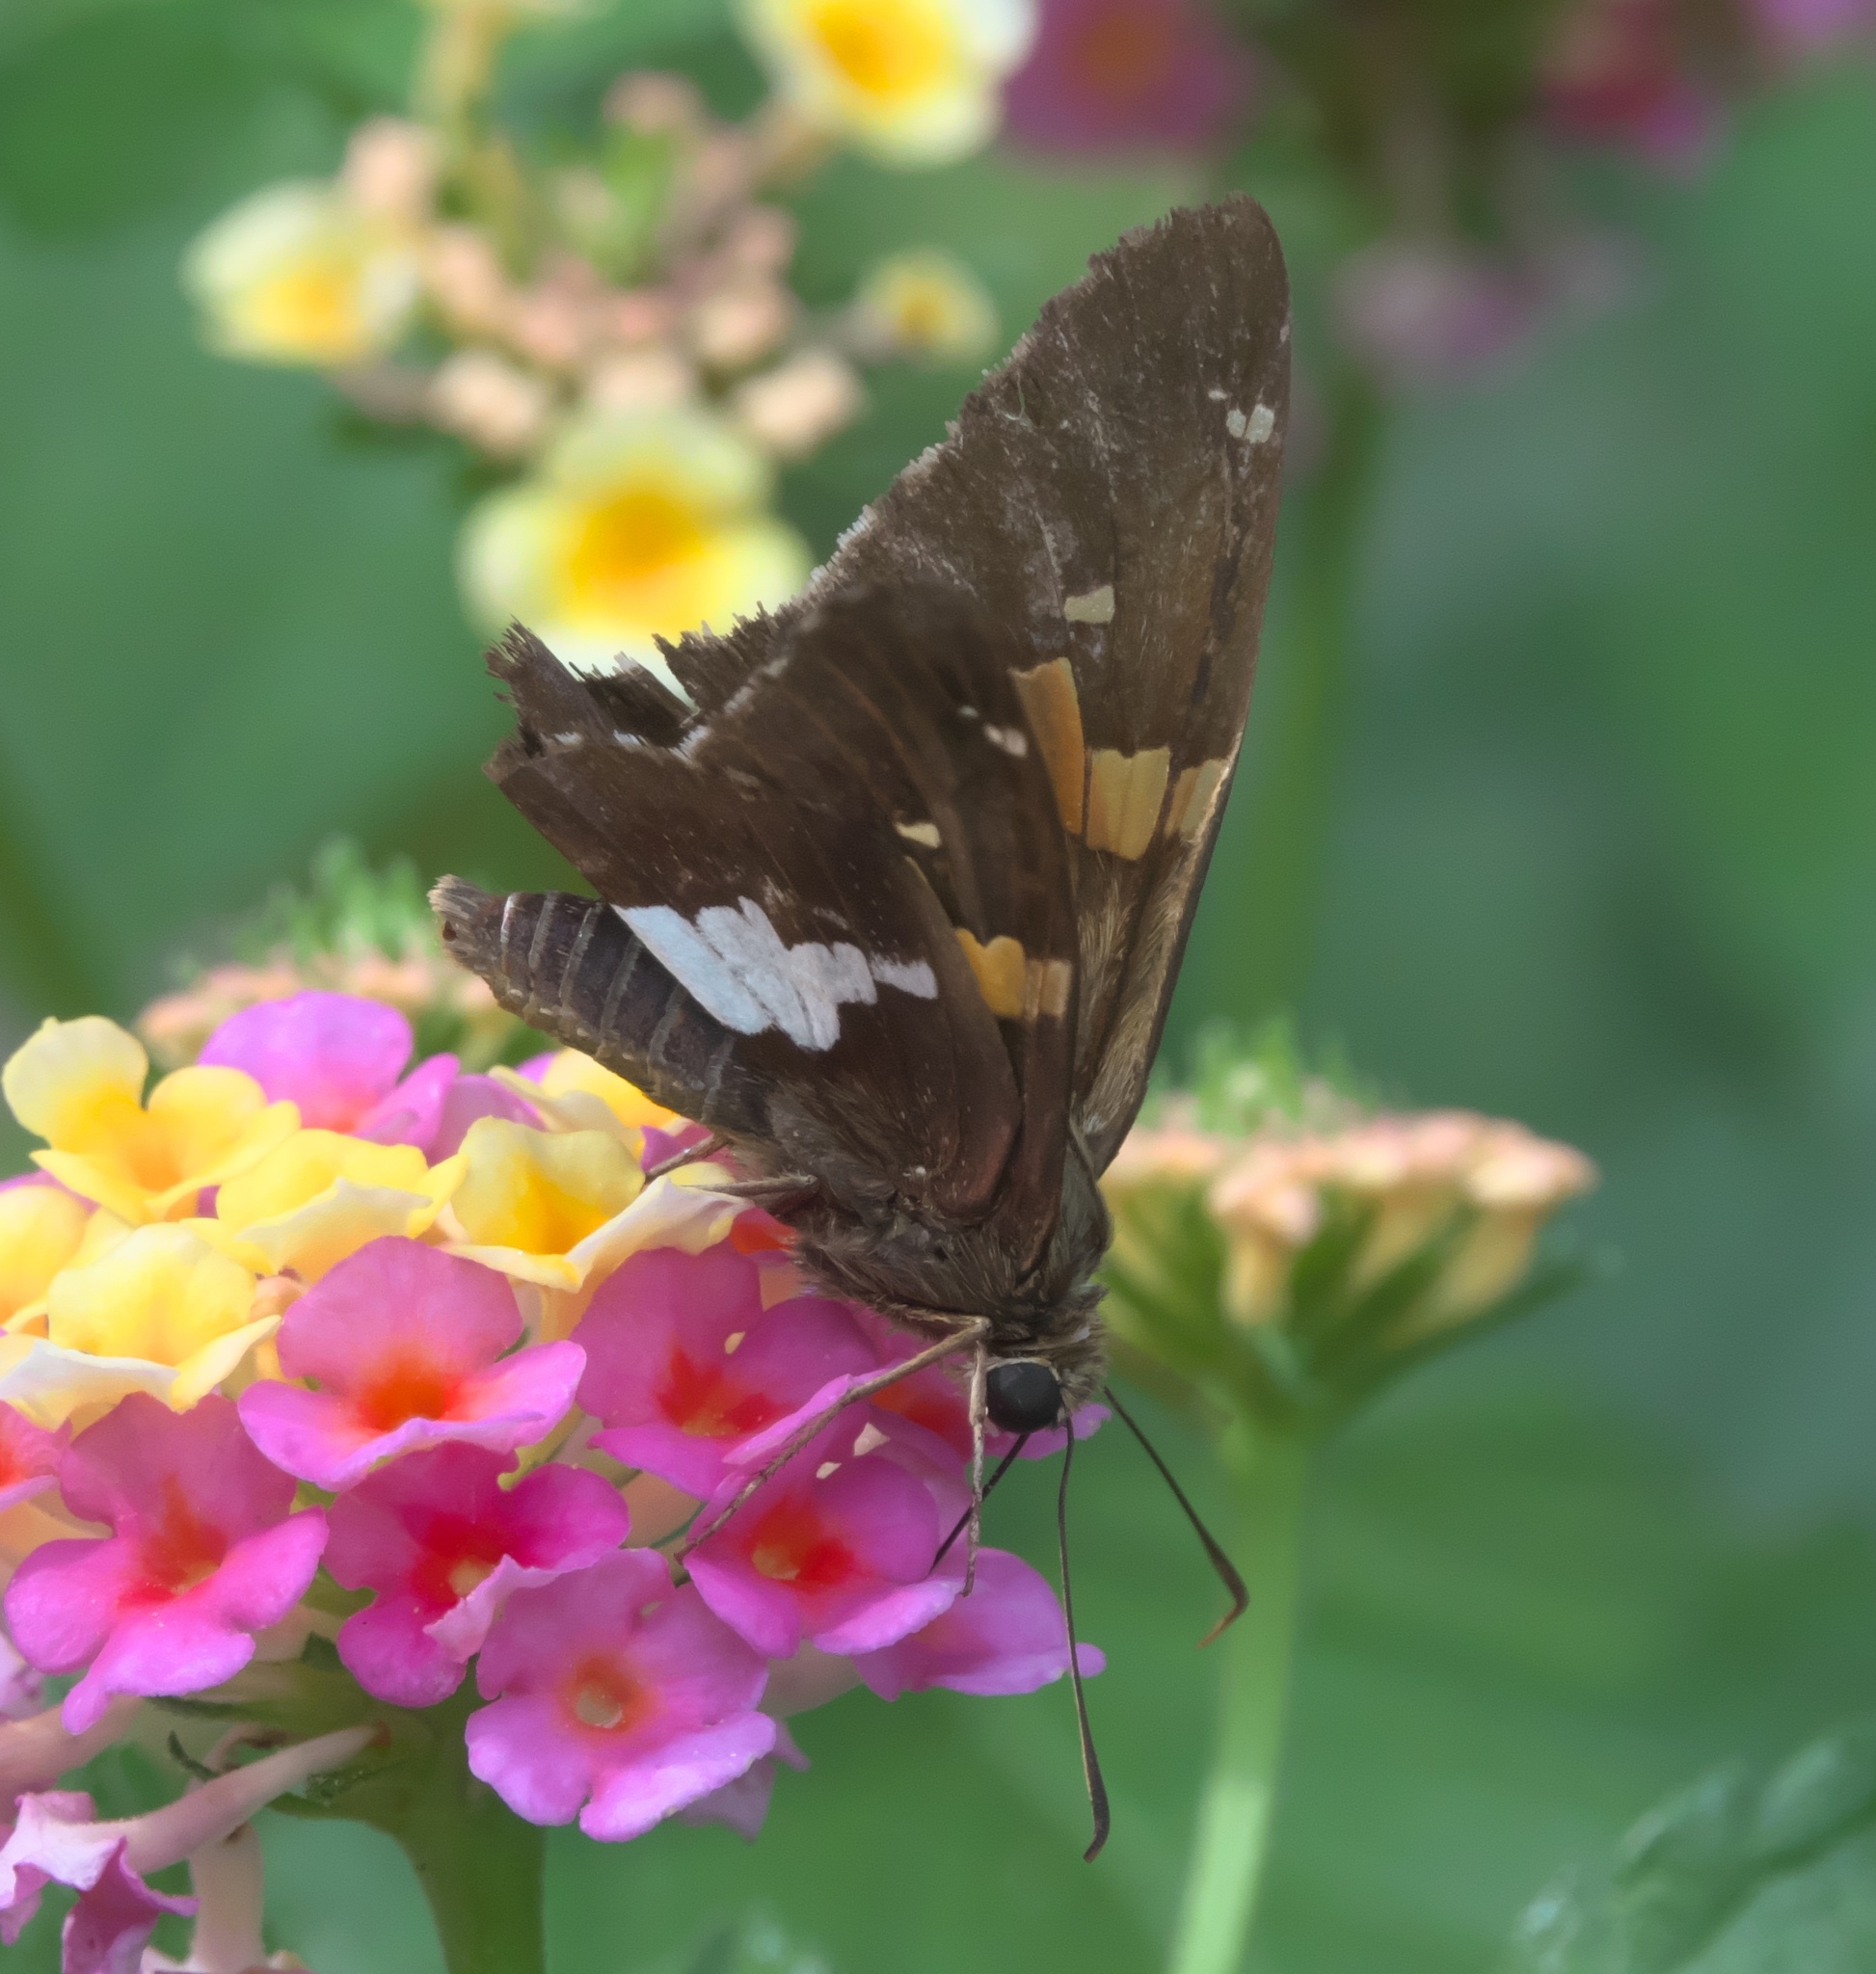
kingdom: Animalia
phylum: Arthropoda
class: Insecta
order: Lepidoptera
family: Hesperiidae
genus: Epargyreus
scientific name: Epargyreus clarus
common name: Silver-spotted skipper
